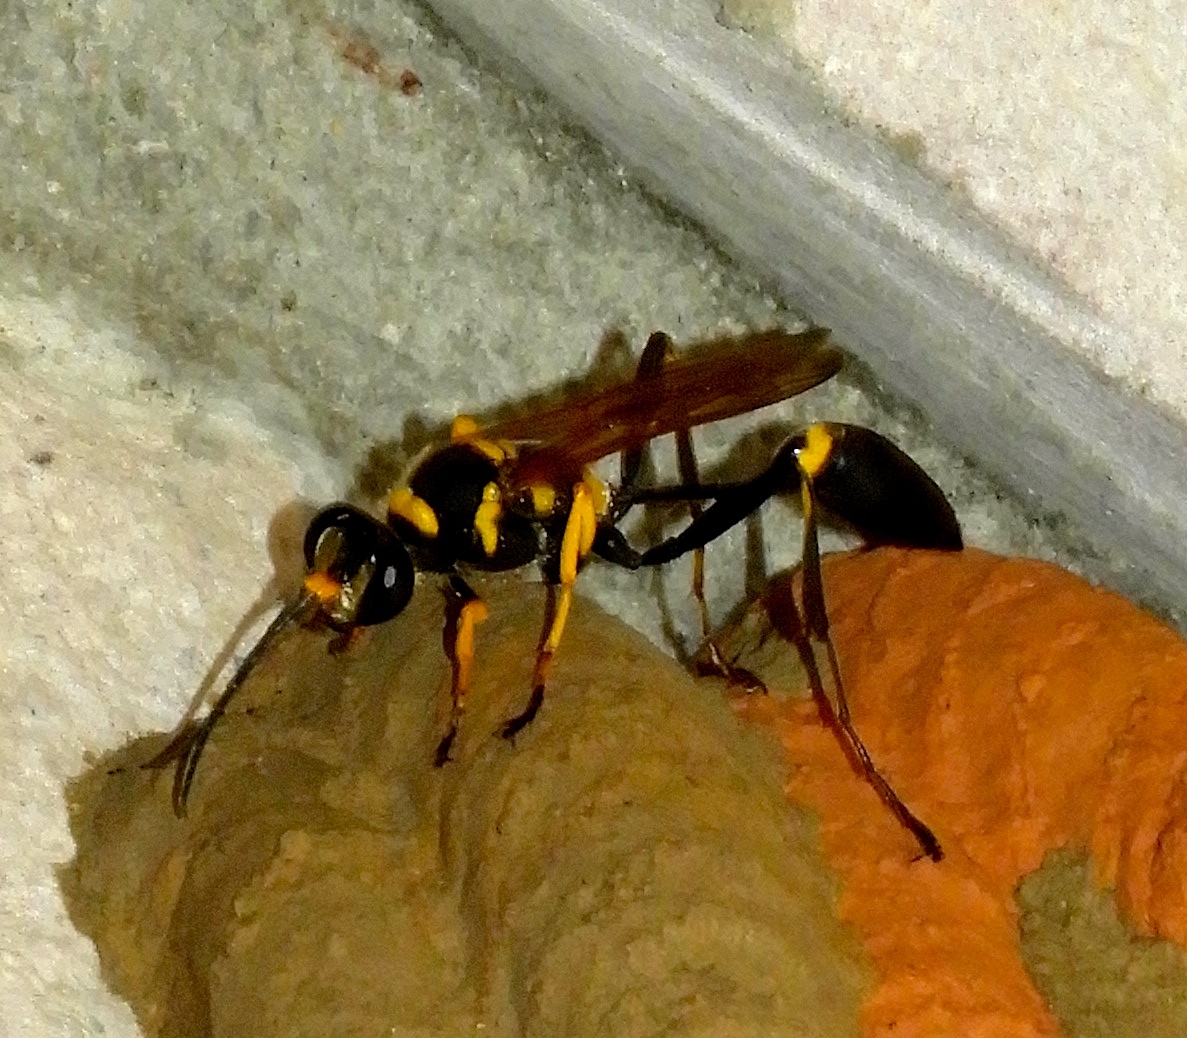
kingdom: Animalia
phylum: Arthropoda
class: Insecta
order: Hymenoptera
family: Sphecidae
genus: Sceliphron
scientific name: Sceliphron assimile
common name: Clayman's mud dauber
